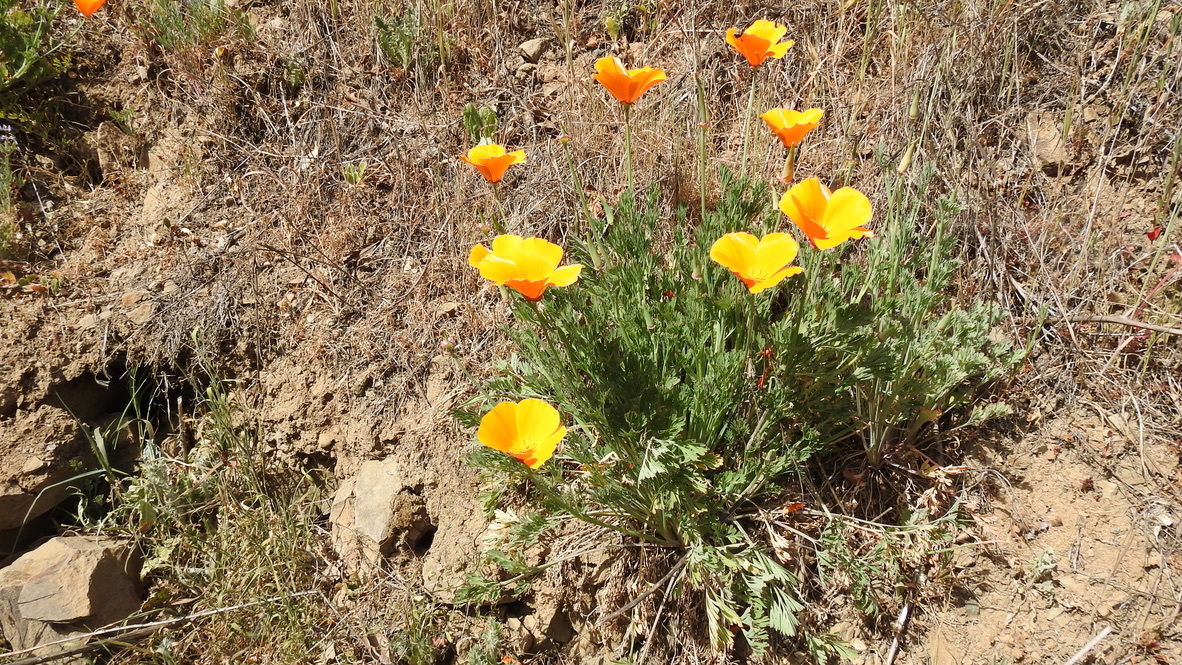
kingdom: Plantae
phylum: Tracheophyta
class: Magnoliopsida
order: Ranunculales
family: Papaveraceae
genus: Eschscholzia
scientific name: Eschscholzia californica
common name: California poppy
